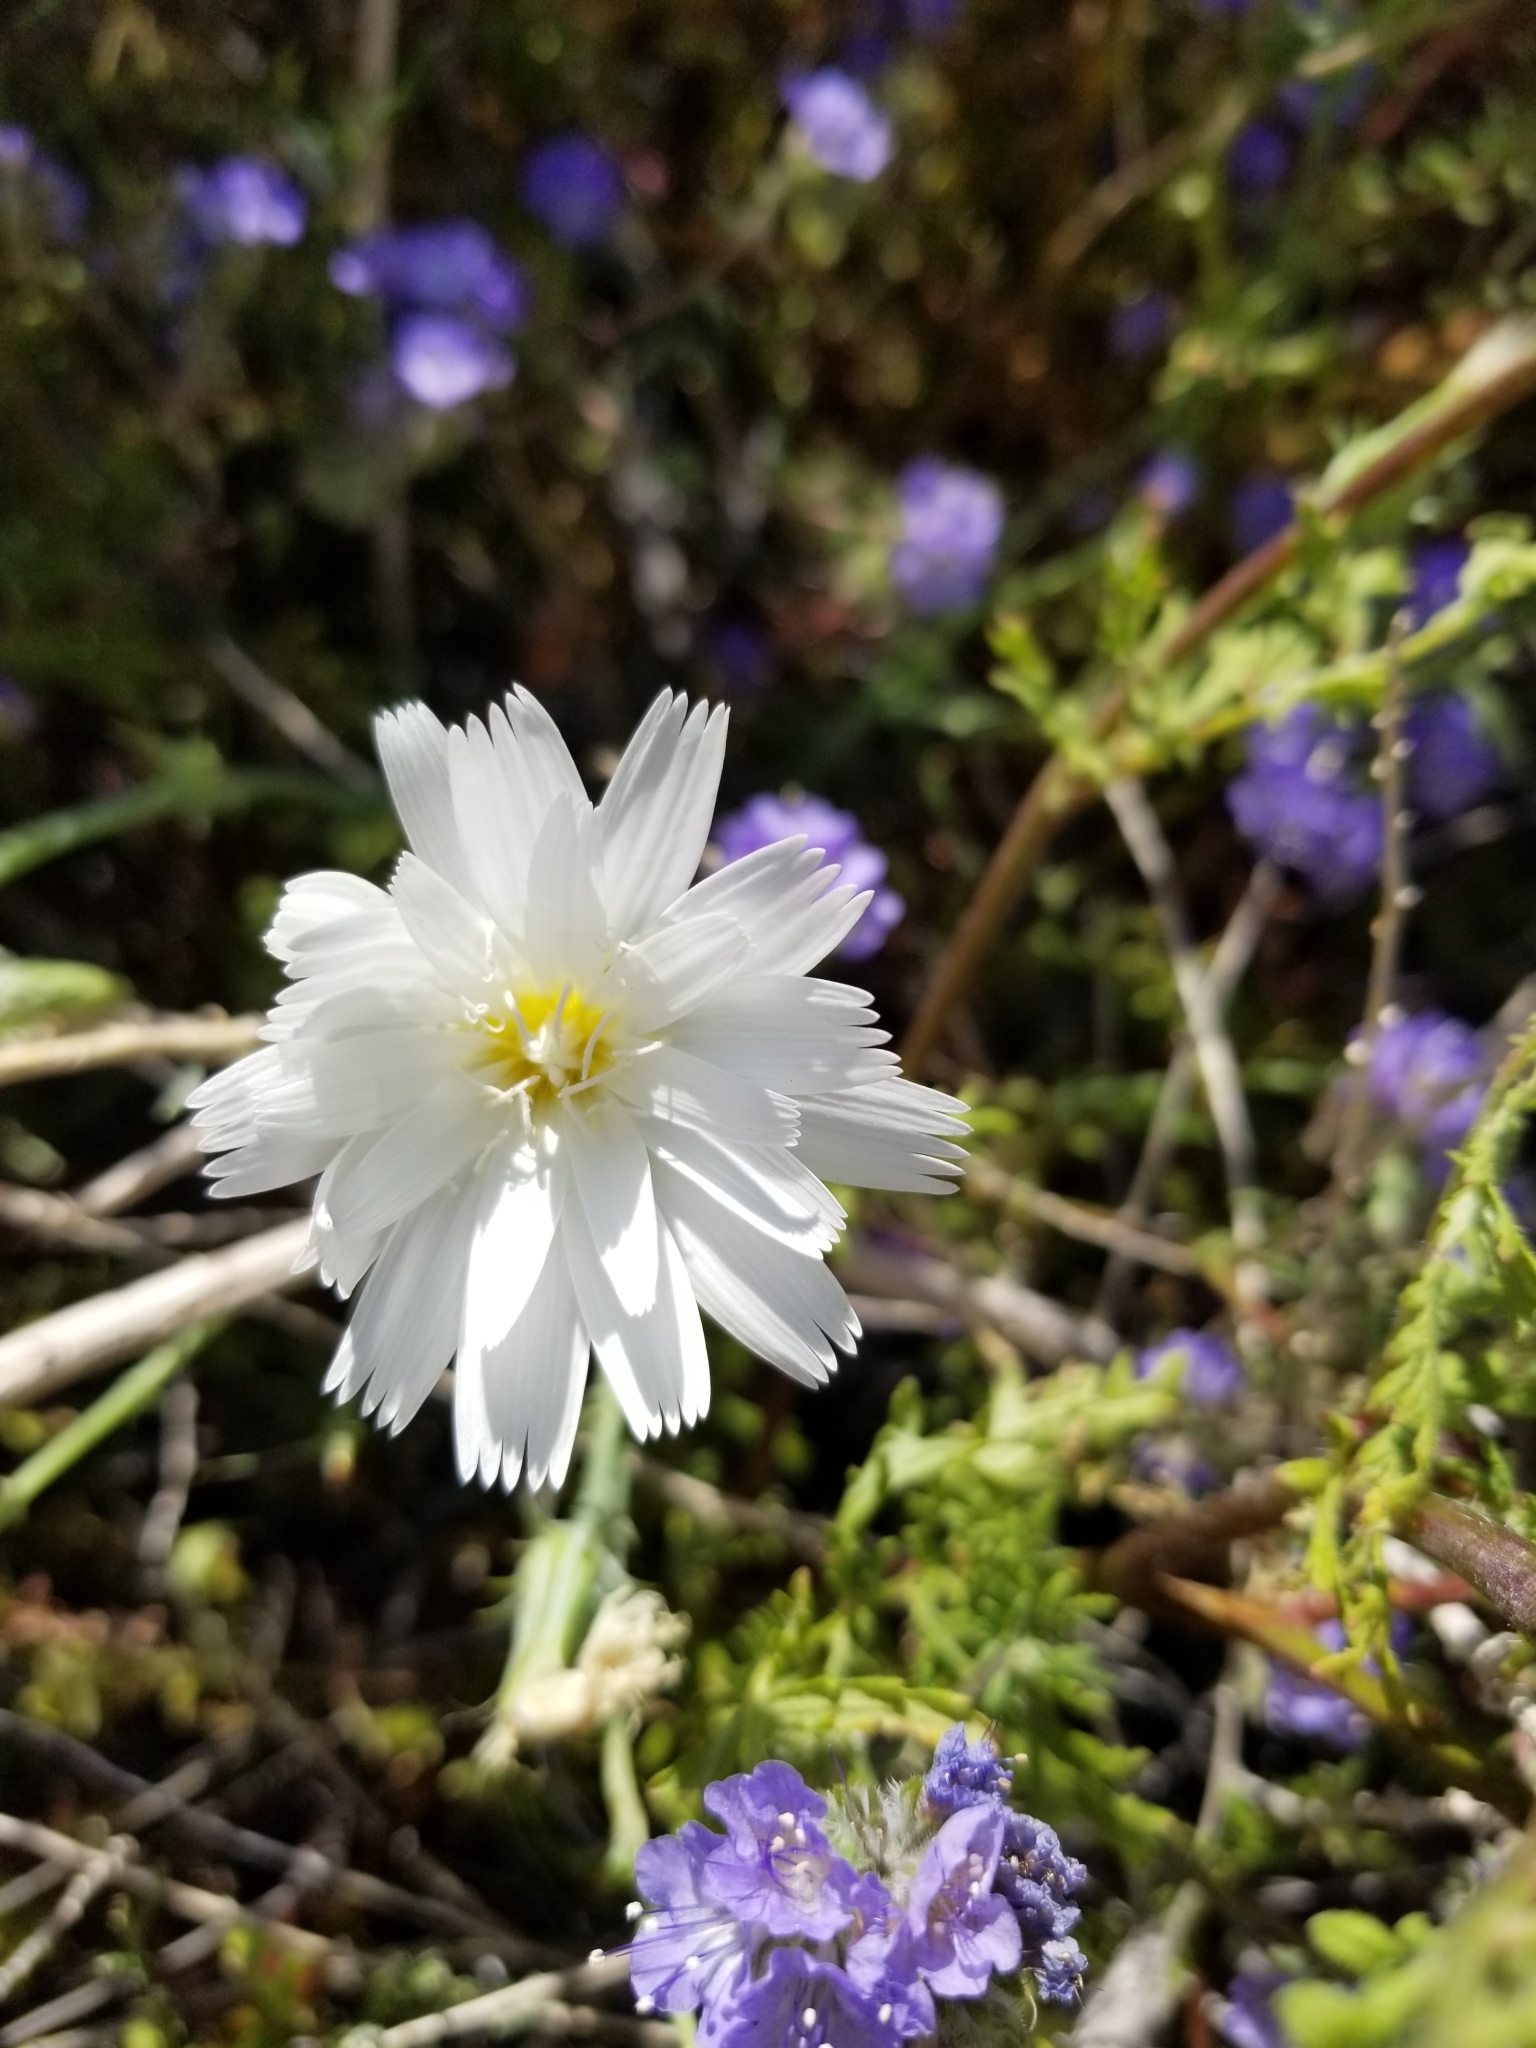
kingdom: Plantae
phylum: Tracheophyta
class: Magnoliopsida
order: Asterales
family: Asteraceae
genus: Rafinesquia
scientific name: Rafinesquia neomexicana
